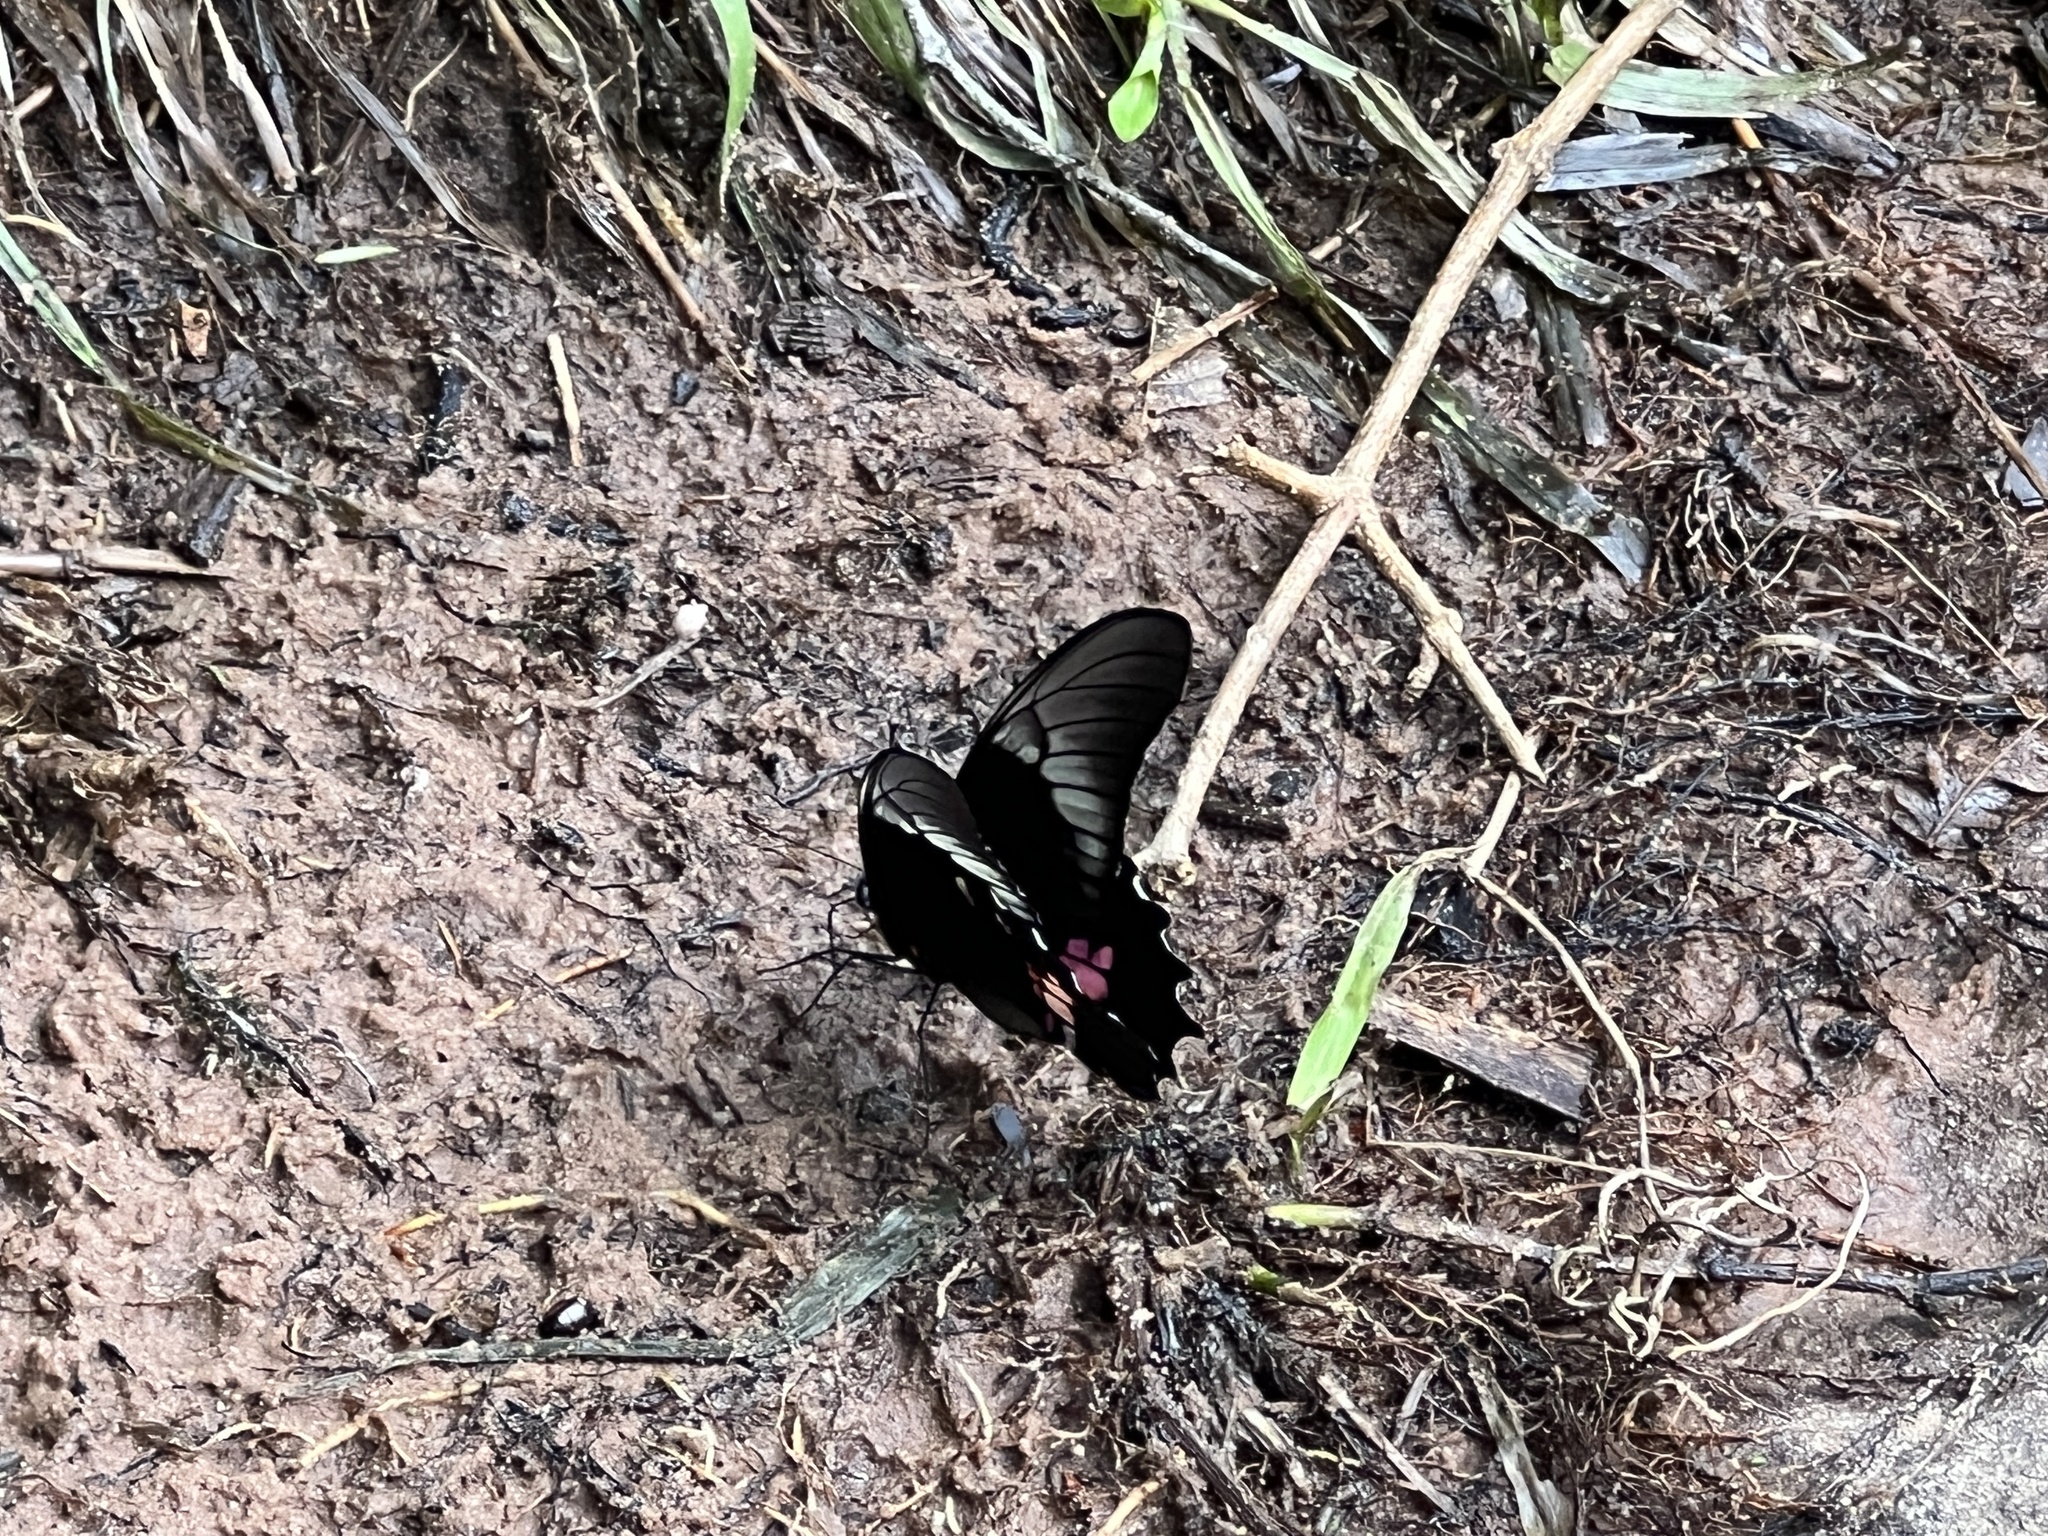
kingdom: Animalia
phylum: Arthropoda
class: Insecta
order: Lepidoptera
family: Papilionidae
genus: Papilio
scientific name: Papilio anchisiades
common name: Idaes swallowtail
